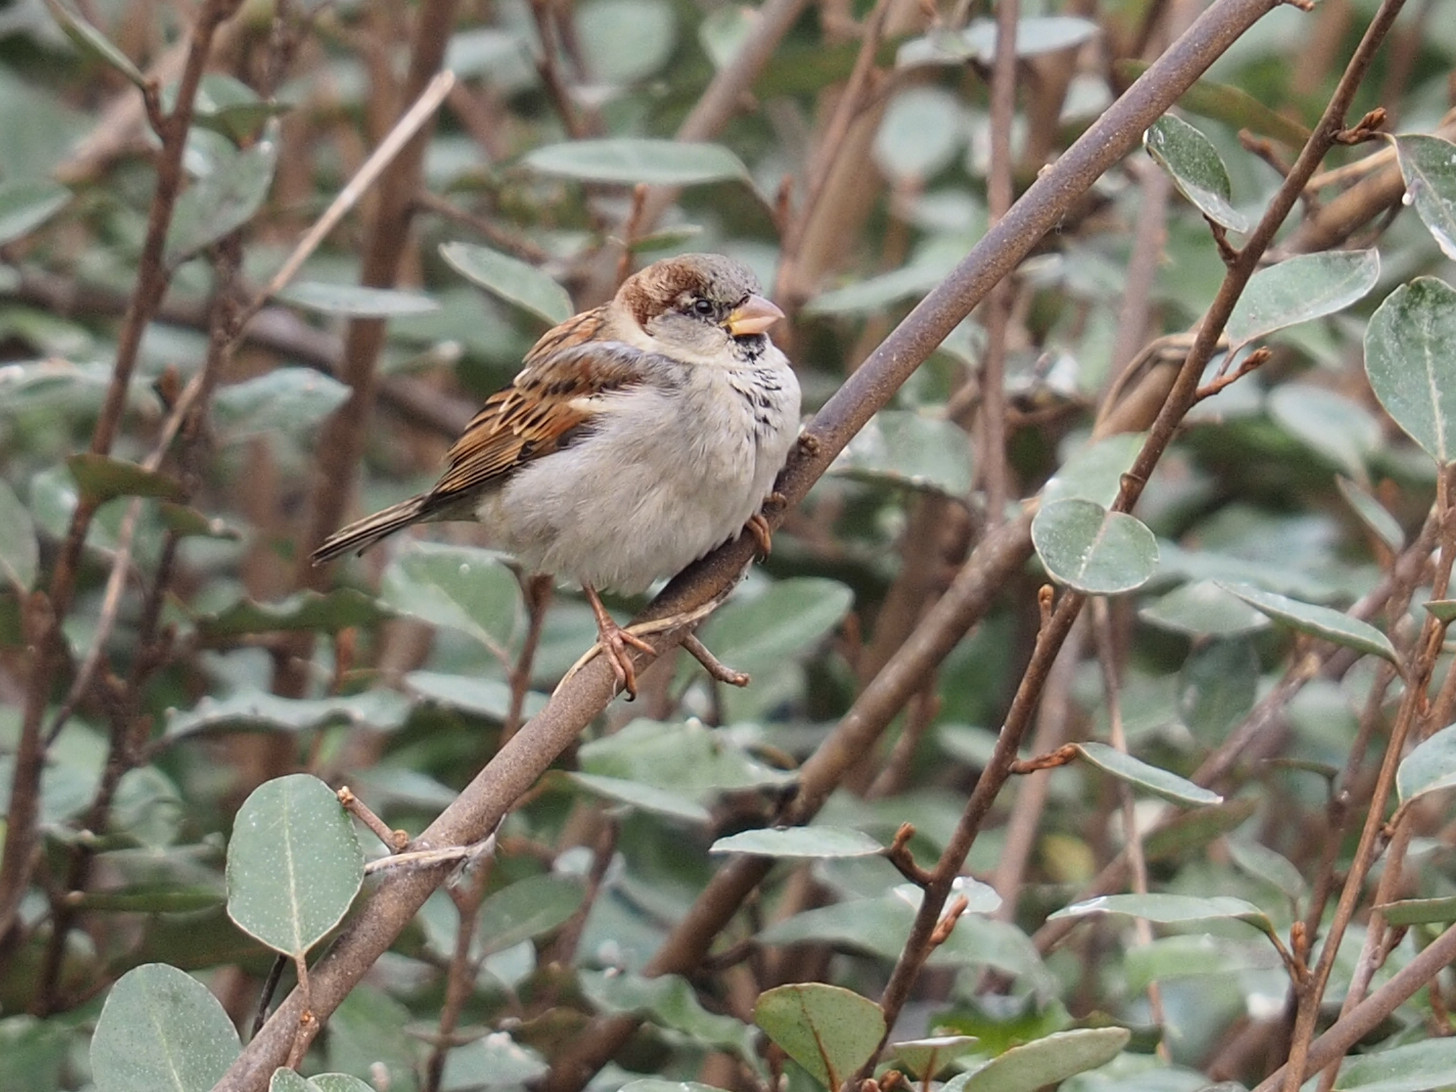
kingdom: Animalia
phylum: Chordata
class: Aves
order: Passeriformes
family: Passeridae
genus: Passer
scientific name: Passer domesticus
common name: House sparrow
